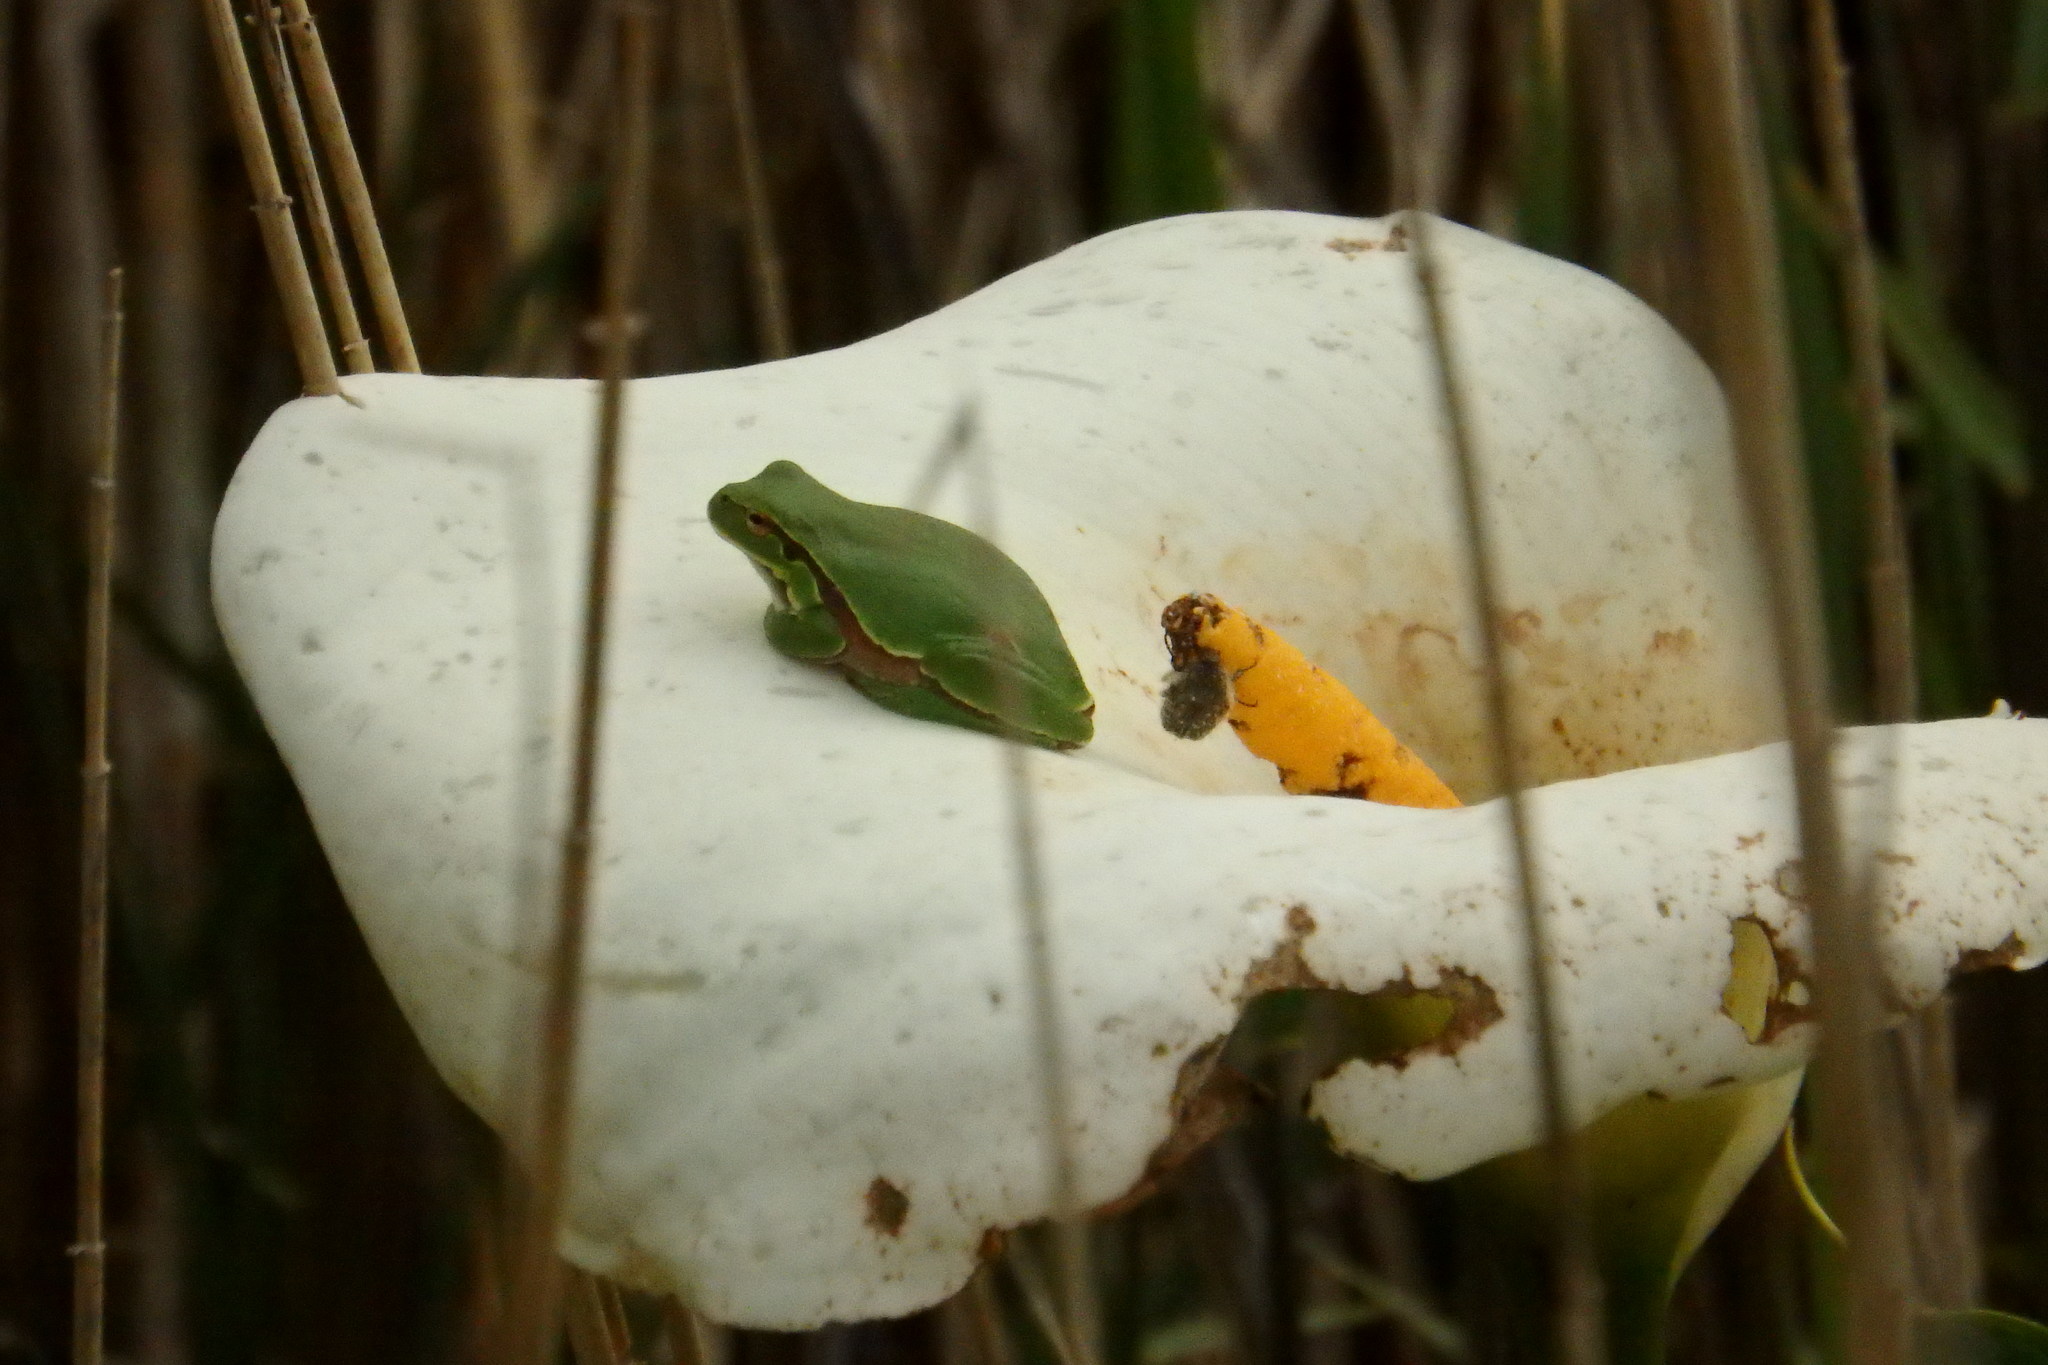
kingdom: Plantae
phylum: Tracheophyta
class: Liliopsida
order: Alismatales
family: Araceae
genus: Zantedeschia
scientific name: Zantedeschia aethiopica
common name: Altar-lily
